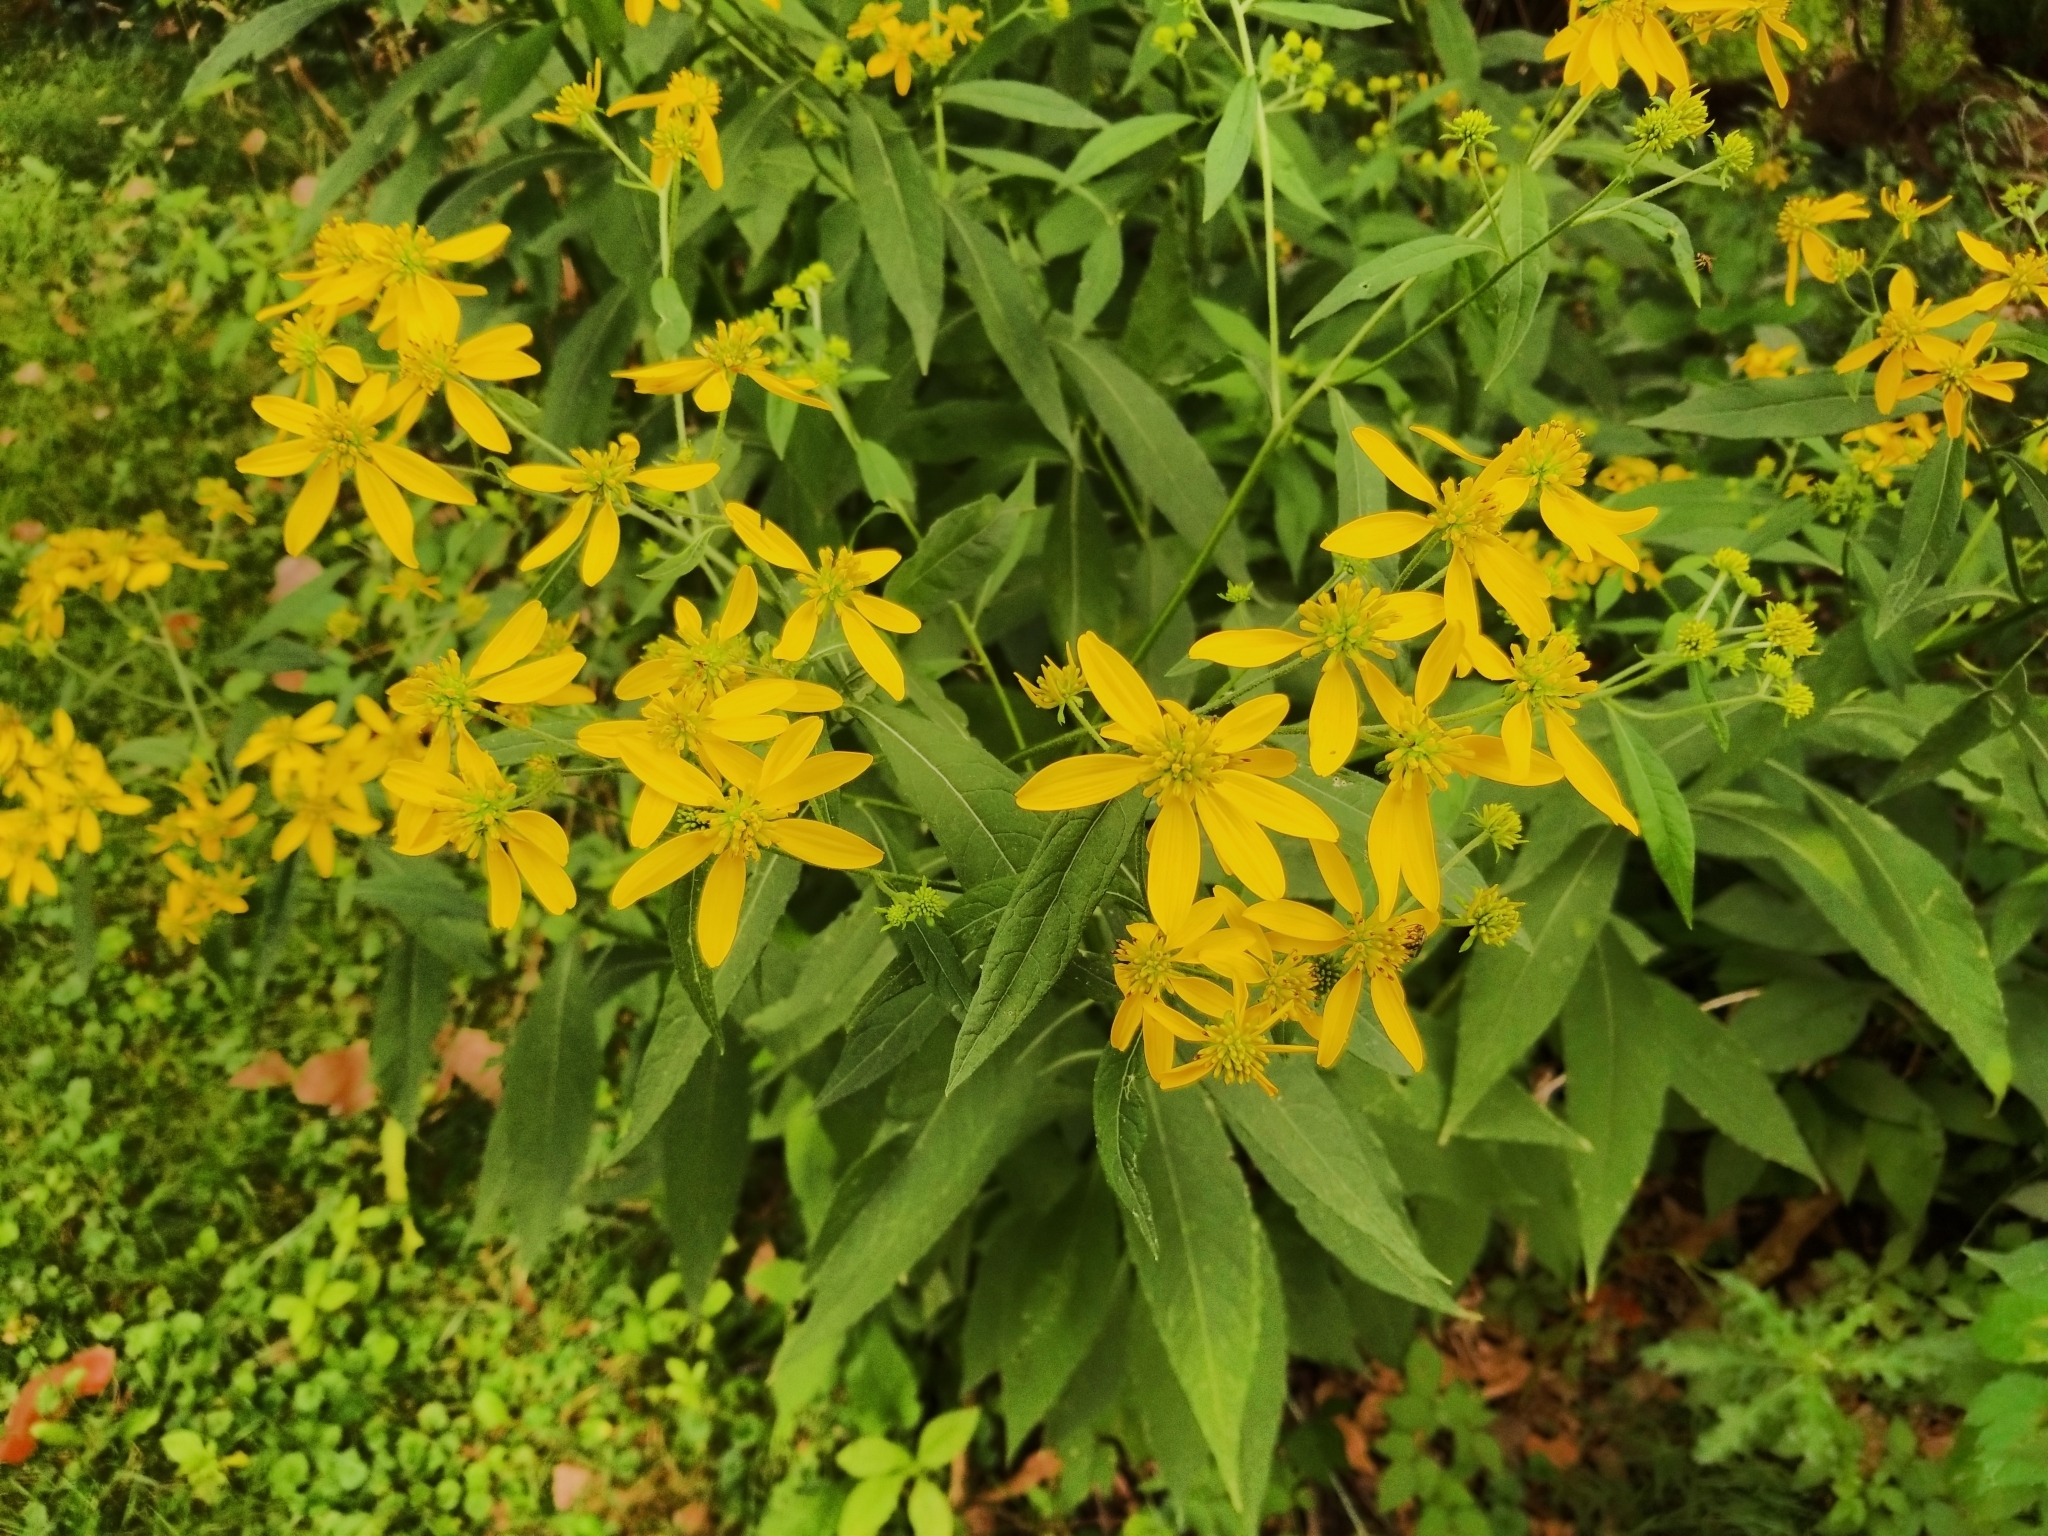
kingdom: Plantae
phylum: Tracheophyta
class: Magnoliopsida
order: Asterales
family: Asteraceae
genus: Verbesina
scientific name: Verbesina alternifolia
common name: Wingstem
